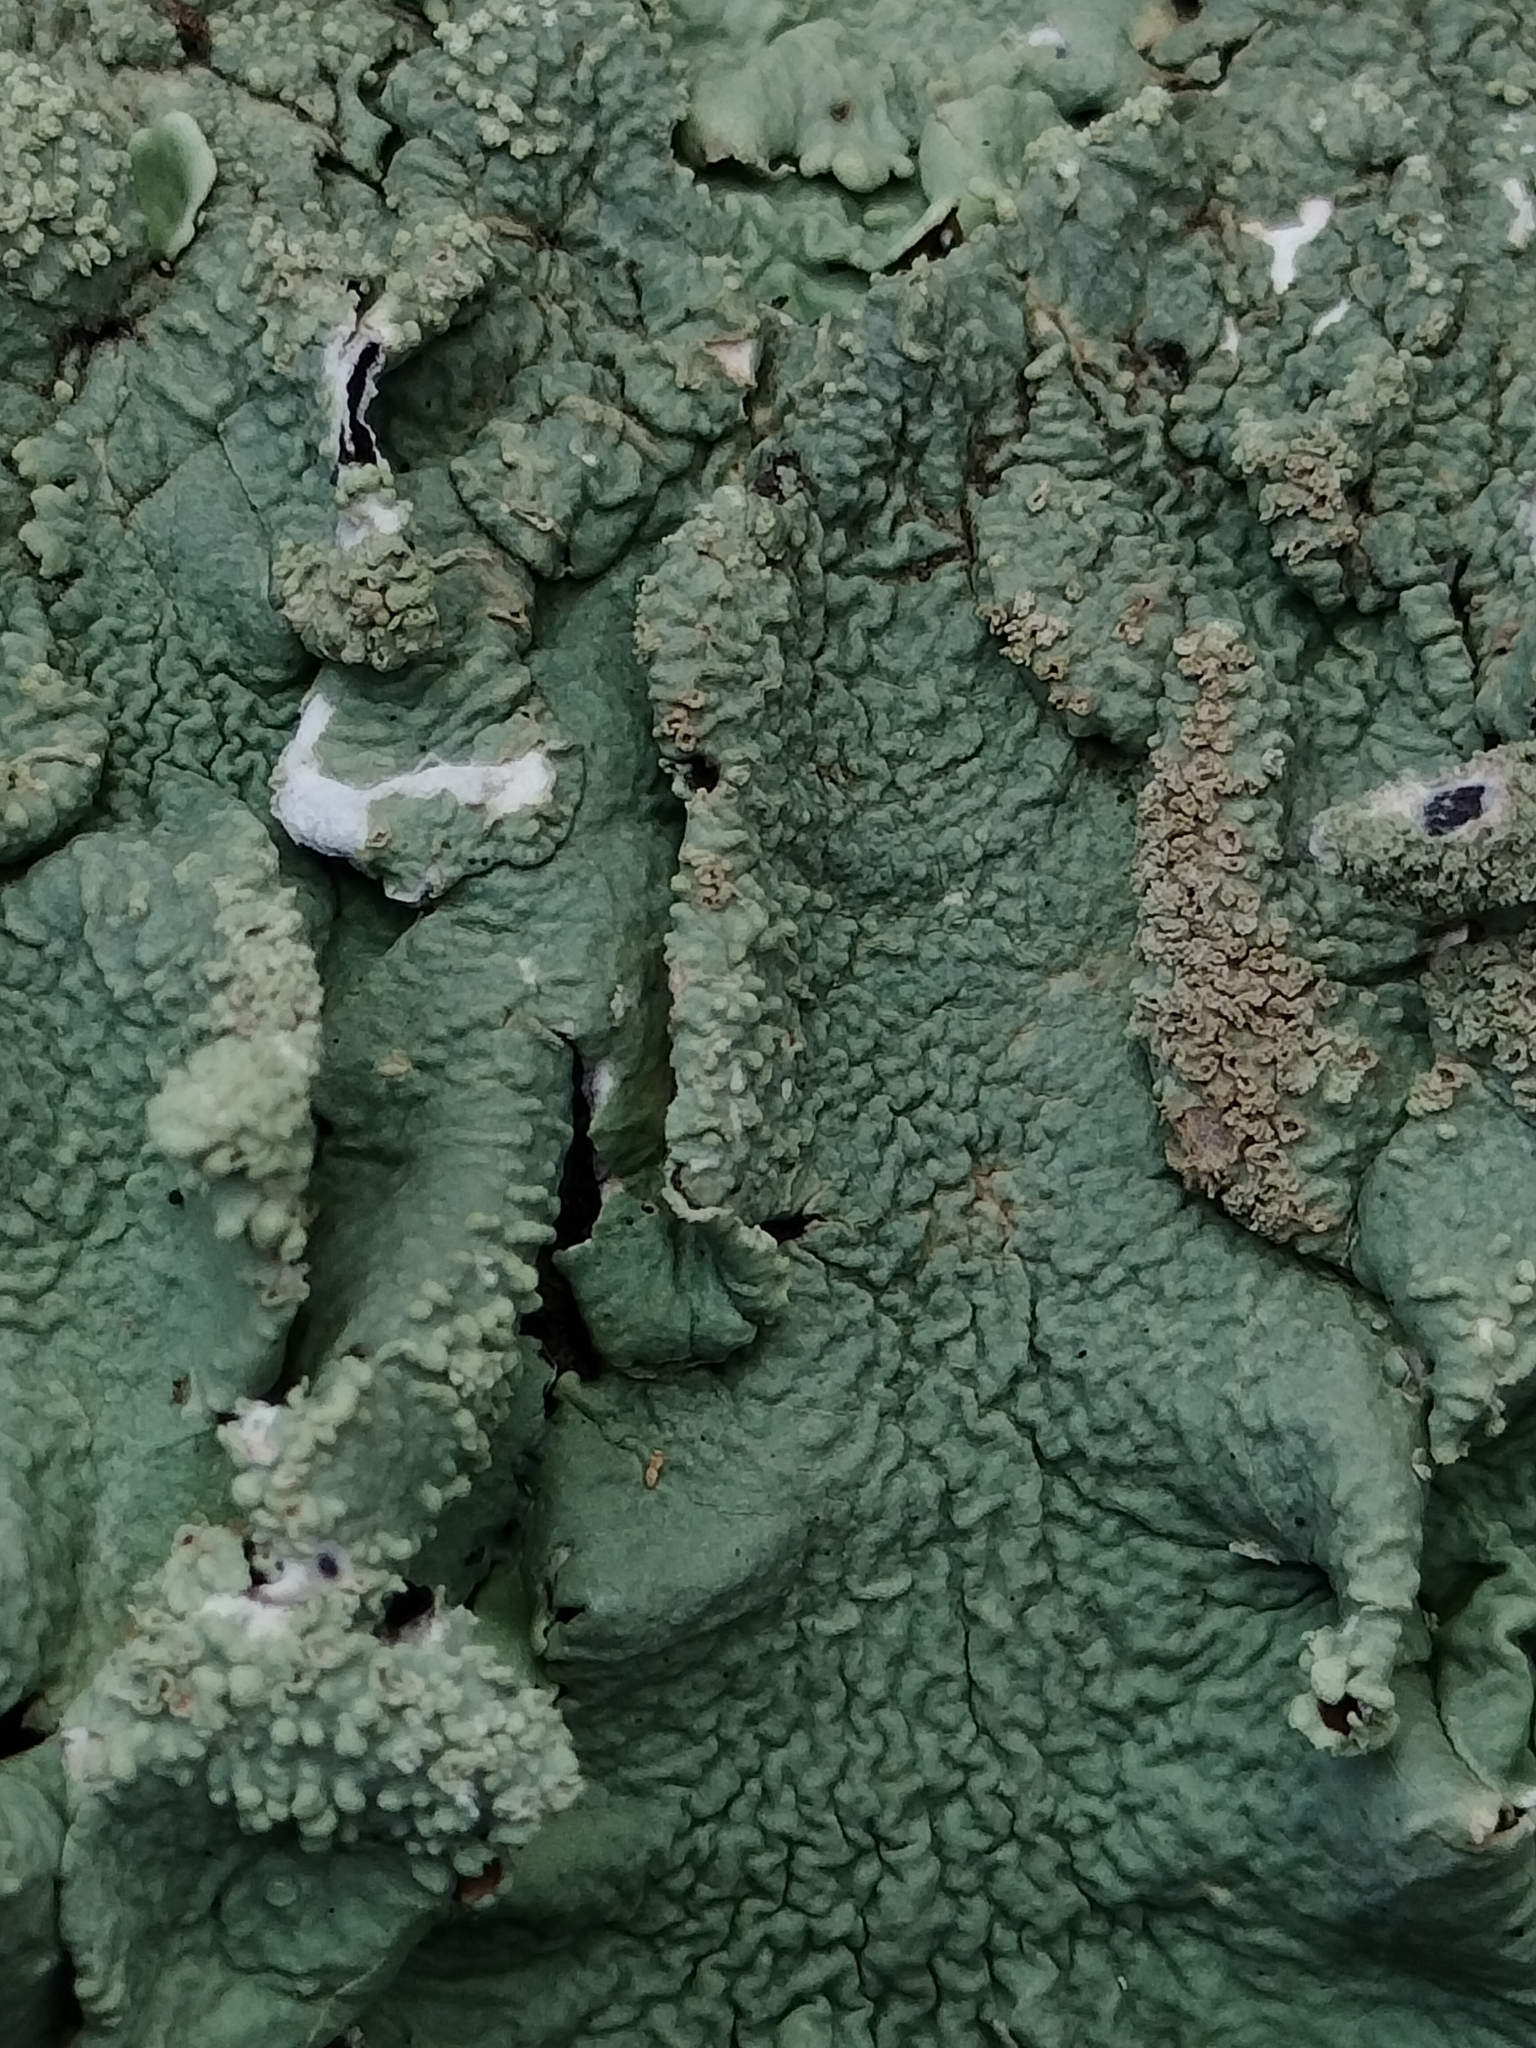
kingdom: Fungi
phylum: Ascomycota
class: Lecanoromycetes
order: Lecanorales
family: Parmeliaceae
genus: Flavoparmelia
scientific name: Flavoparmelia caperata
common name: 40-mile per hour lichen
